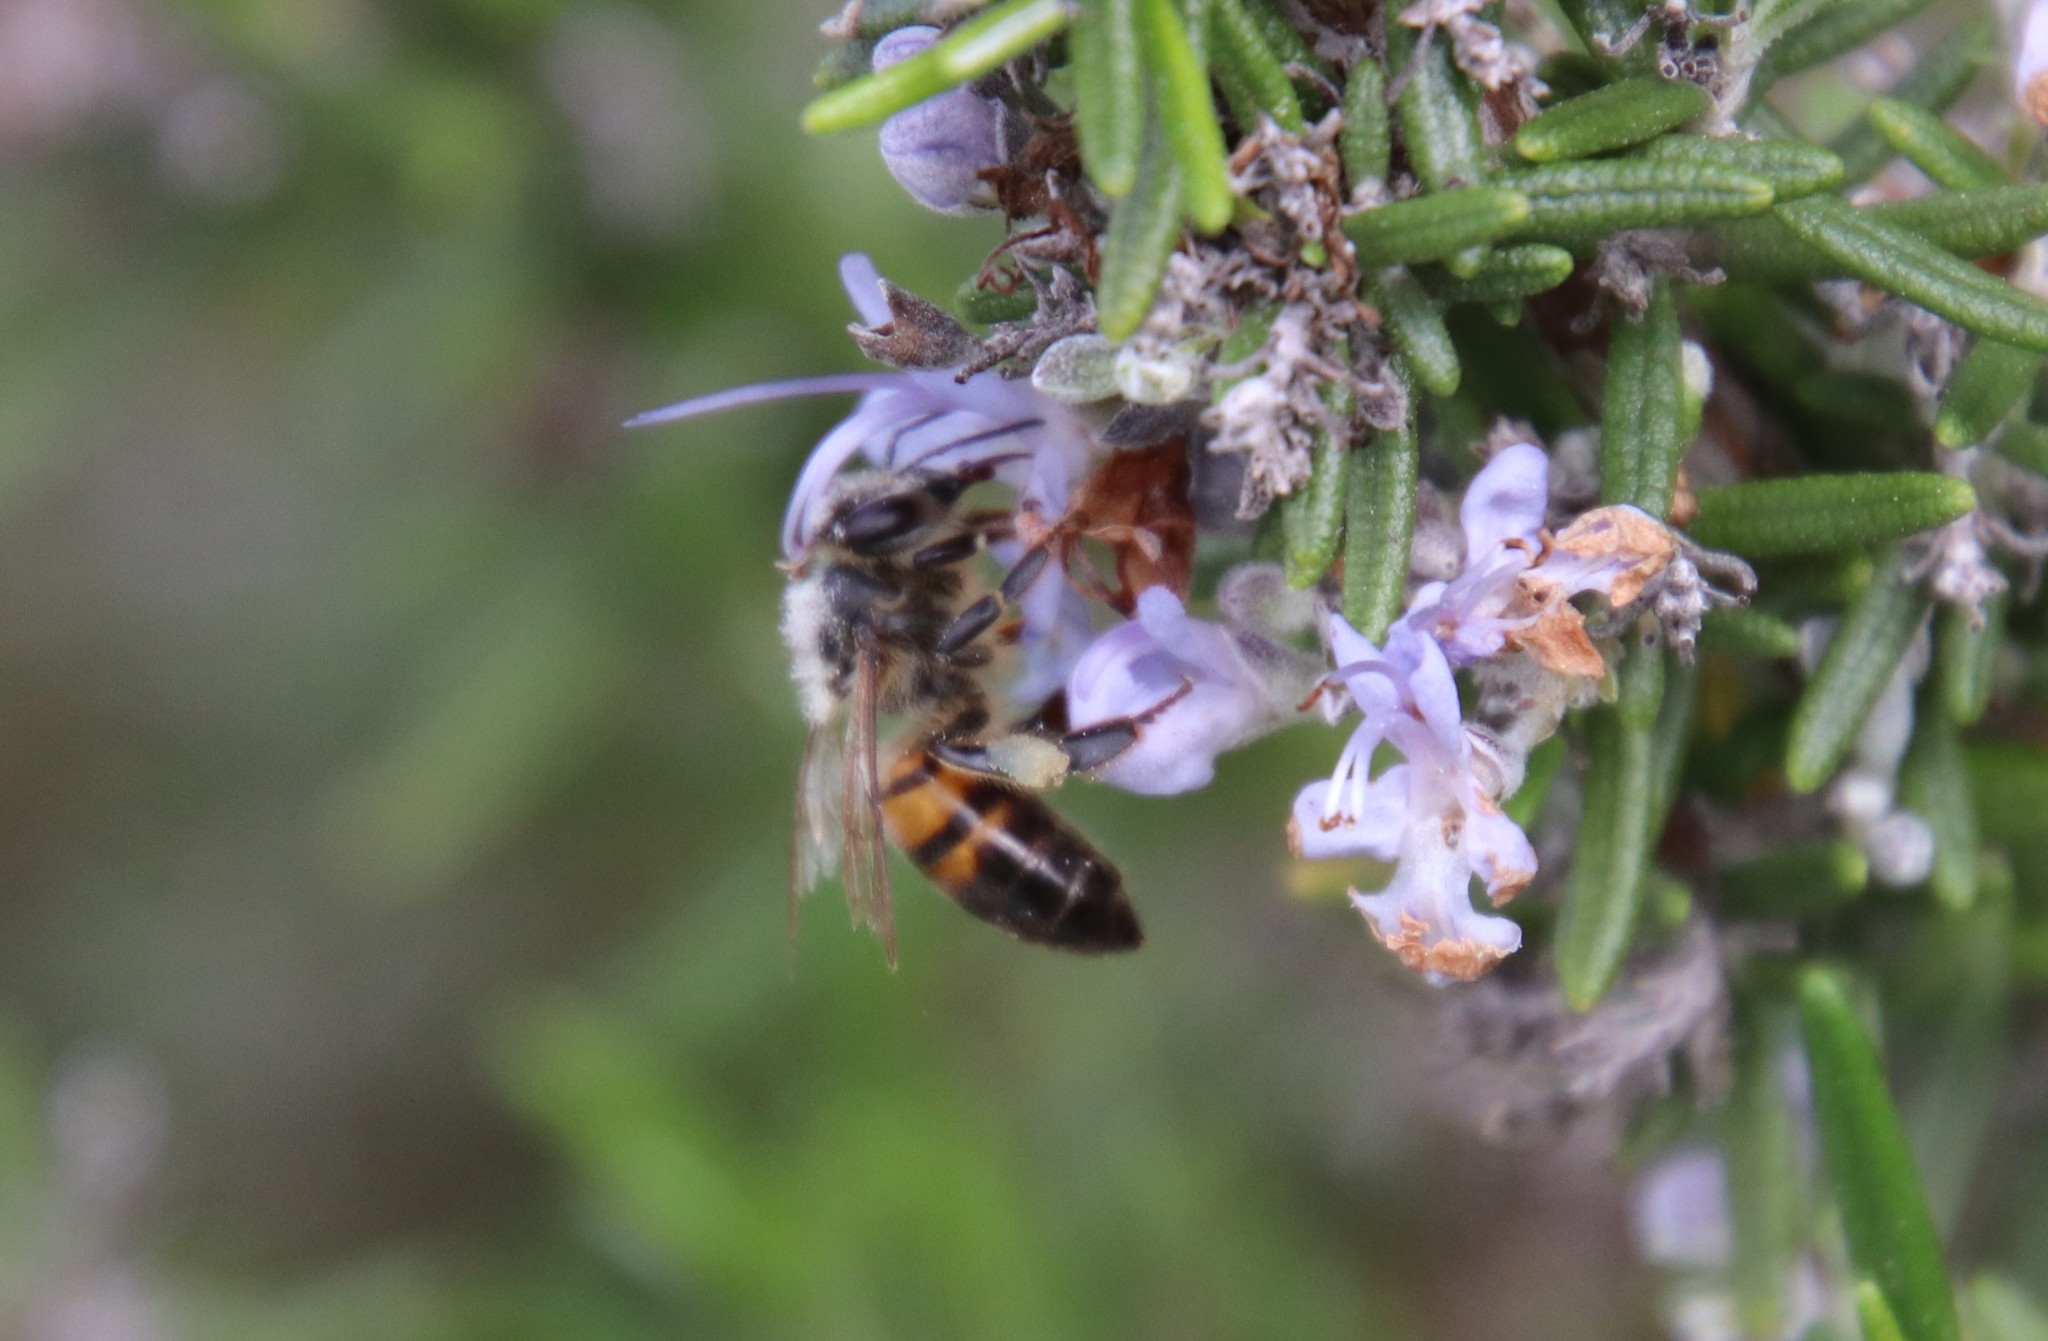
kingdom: Animalia
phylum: Arthropoda
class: Insecta
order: Hymenoptera
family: Apidae
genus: Apis
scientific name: Apis mellifera
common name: Honey bee
